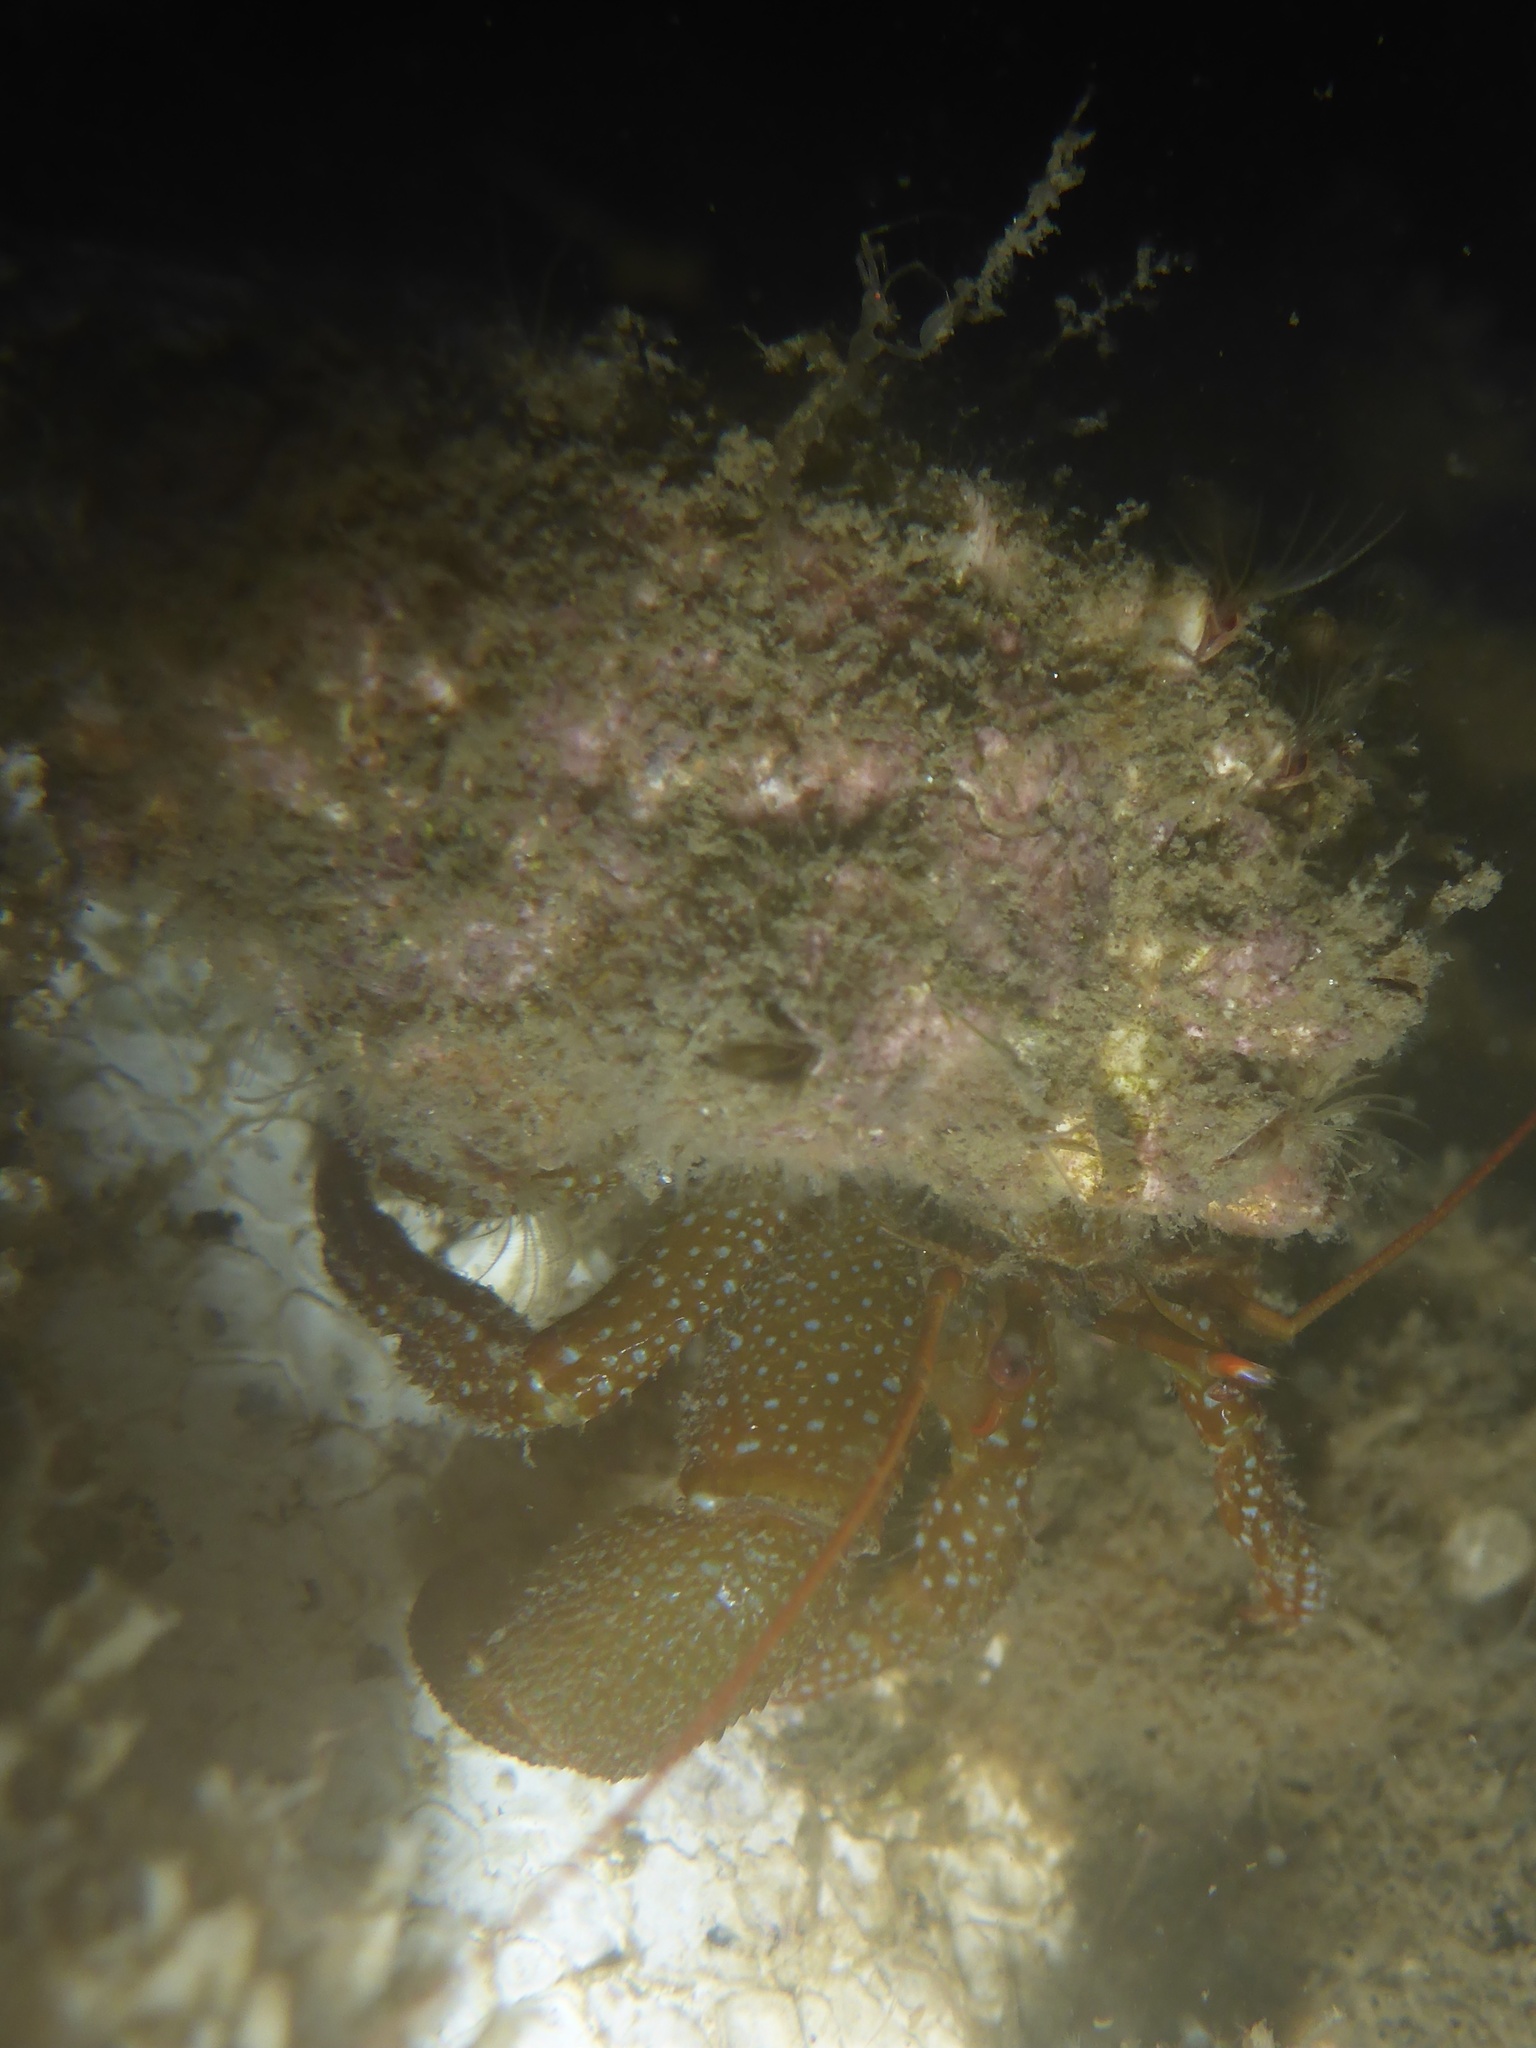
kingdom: Animalia
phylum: Arthropoda
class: Malacostraca
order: Decapoda
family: Paguridae
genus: Pagurus
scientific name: Pagurus granosimanus
